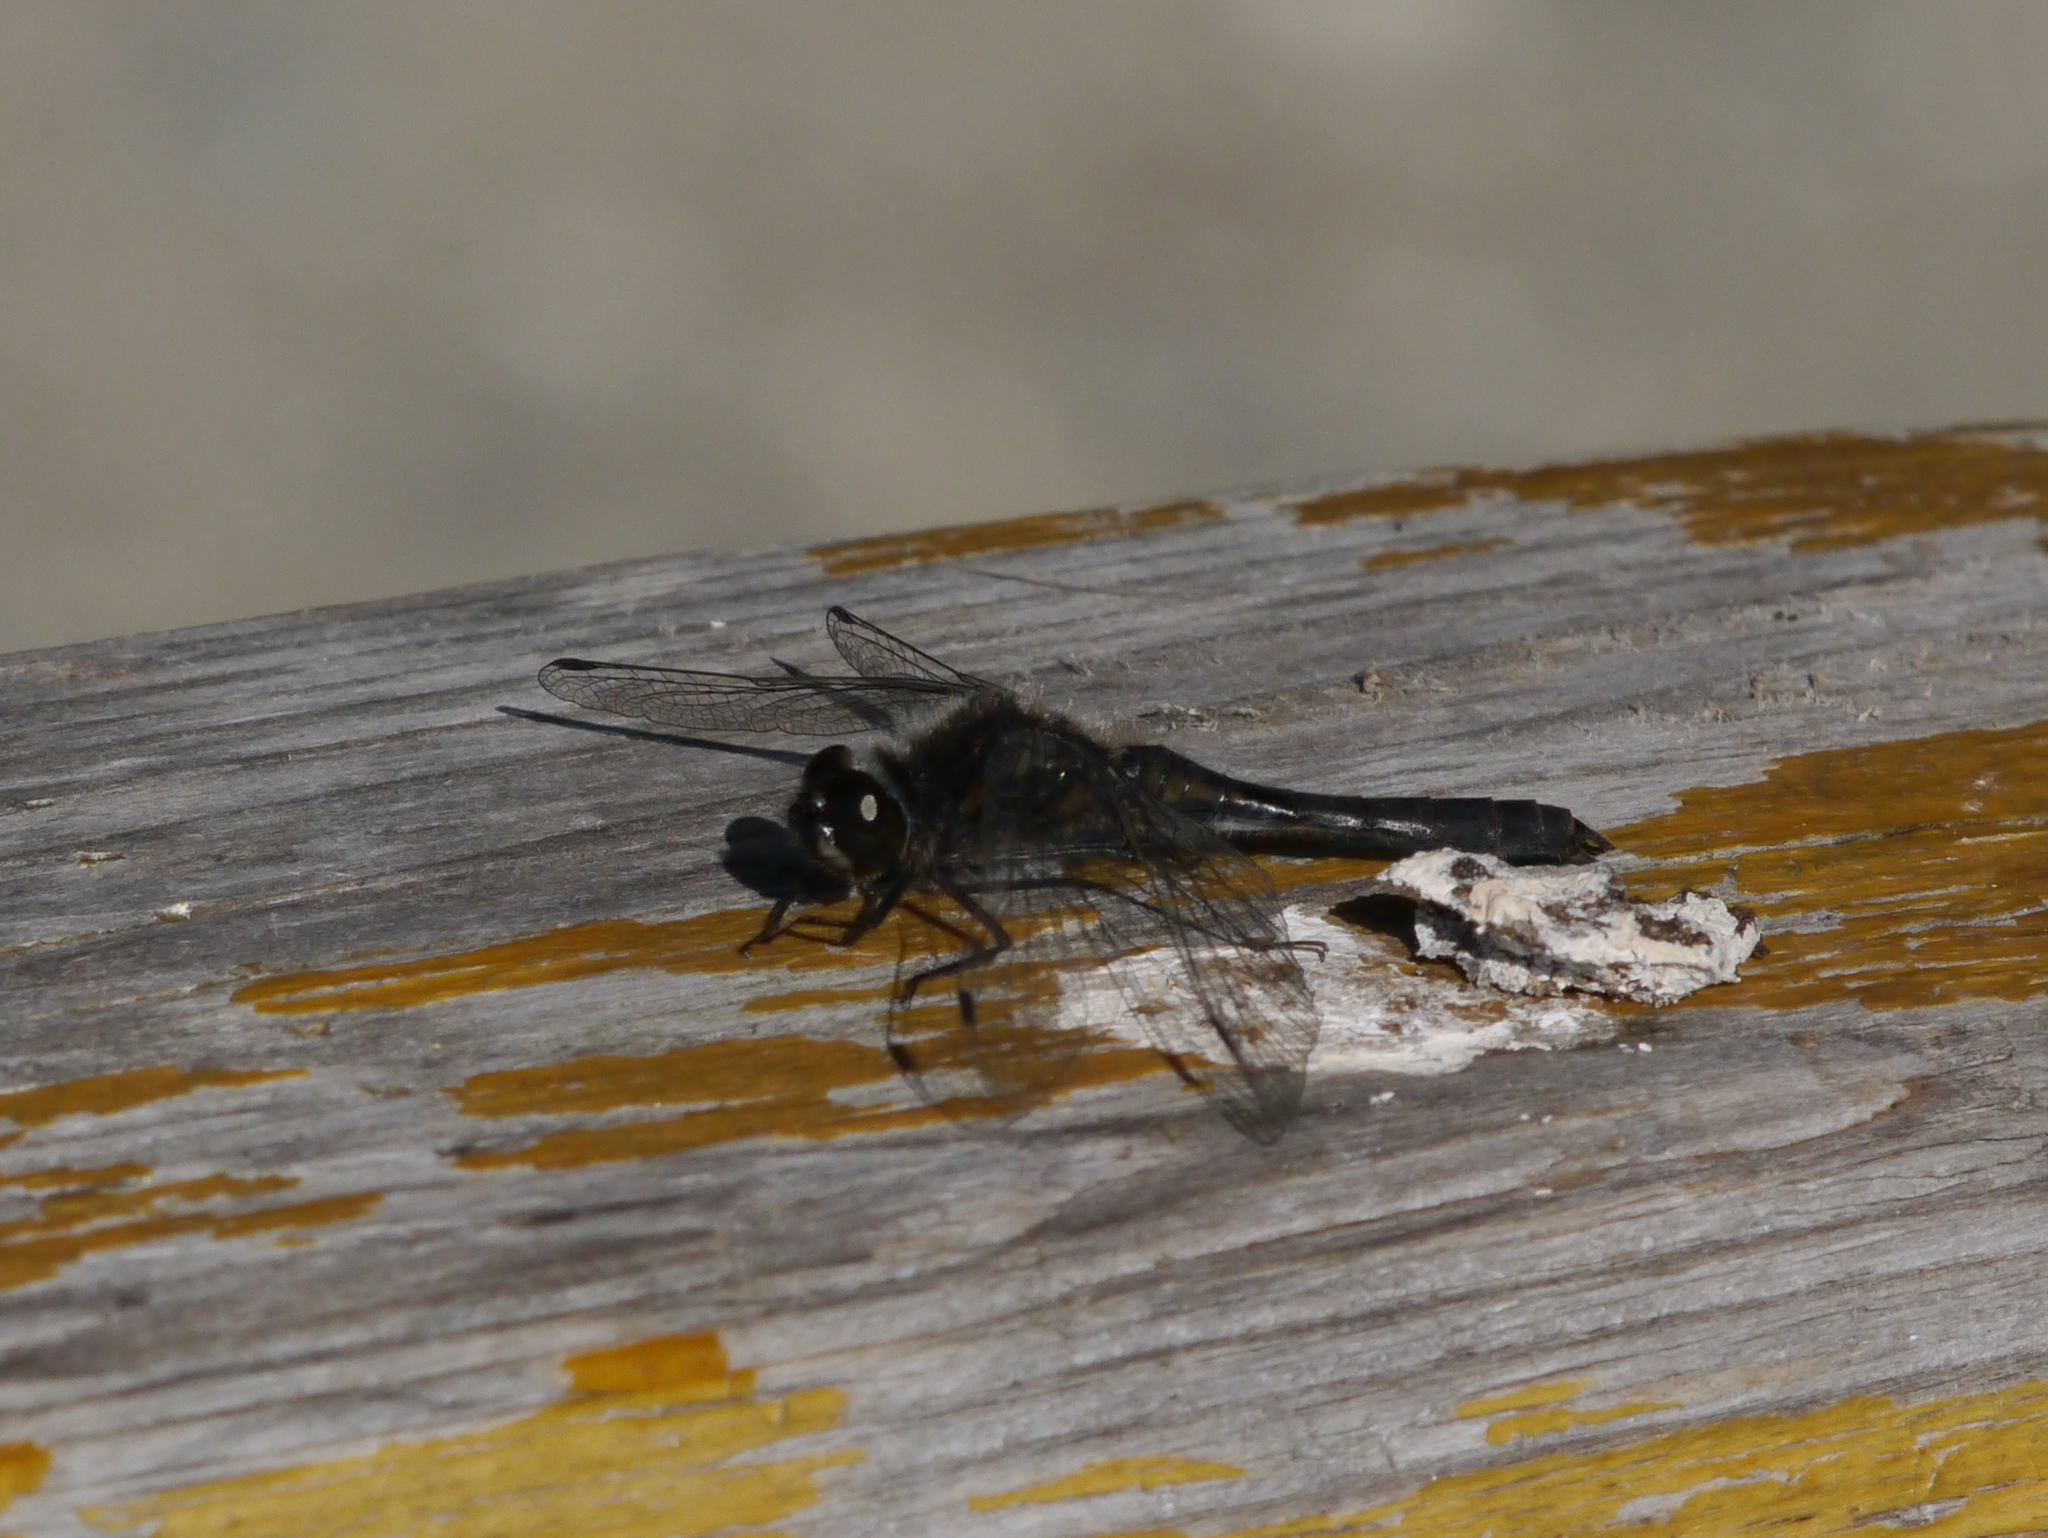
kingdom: Animalia
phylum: Arthropoda
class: Insecta
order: Odonata
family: Libellulidae
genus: Sympetrum
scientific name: Sympetrum danae
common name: Black darter
